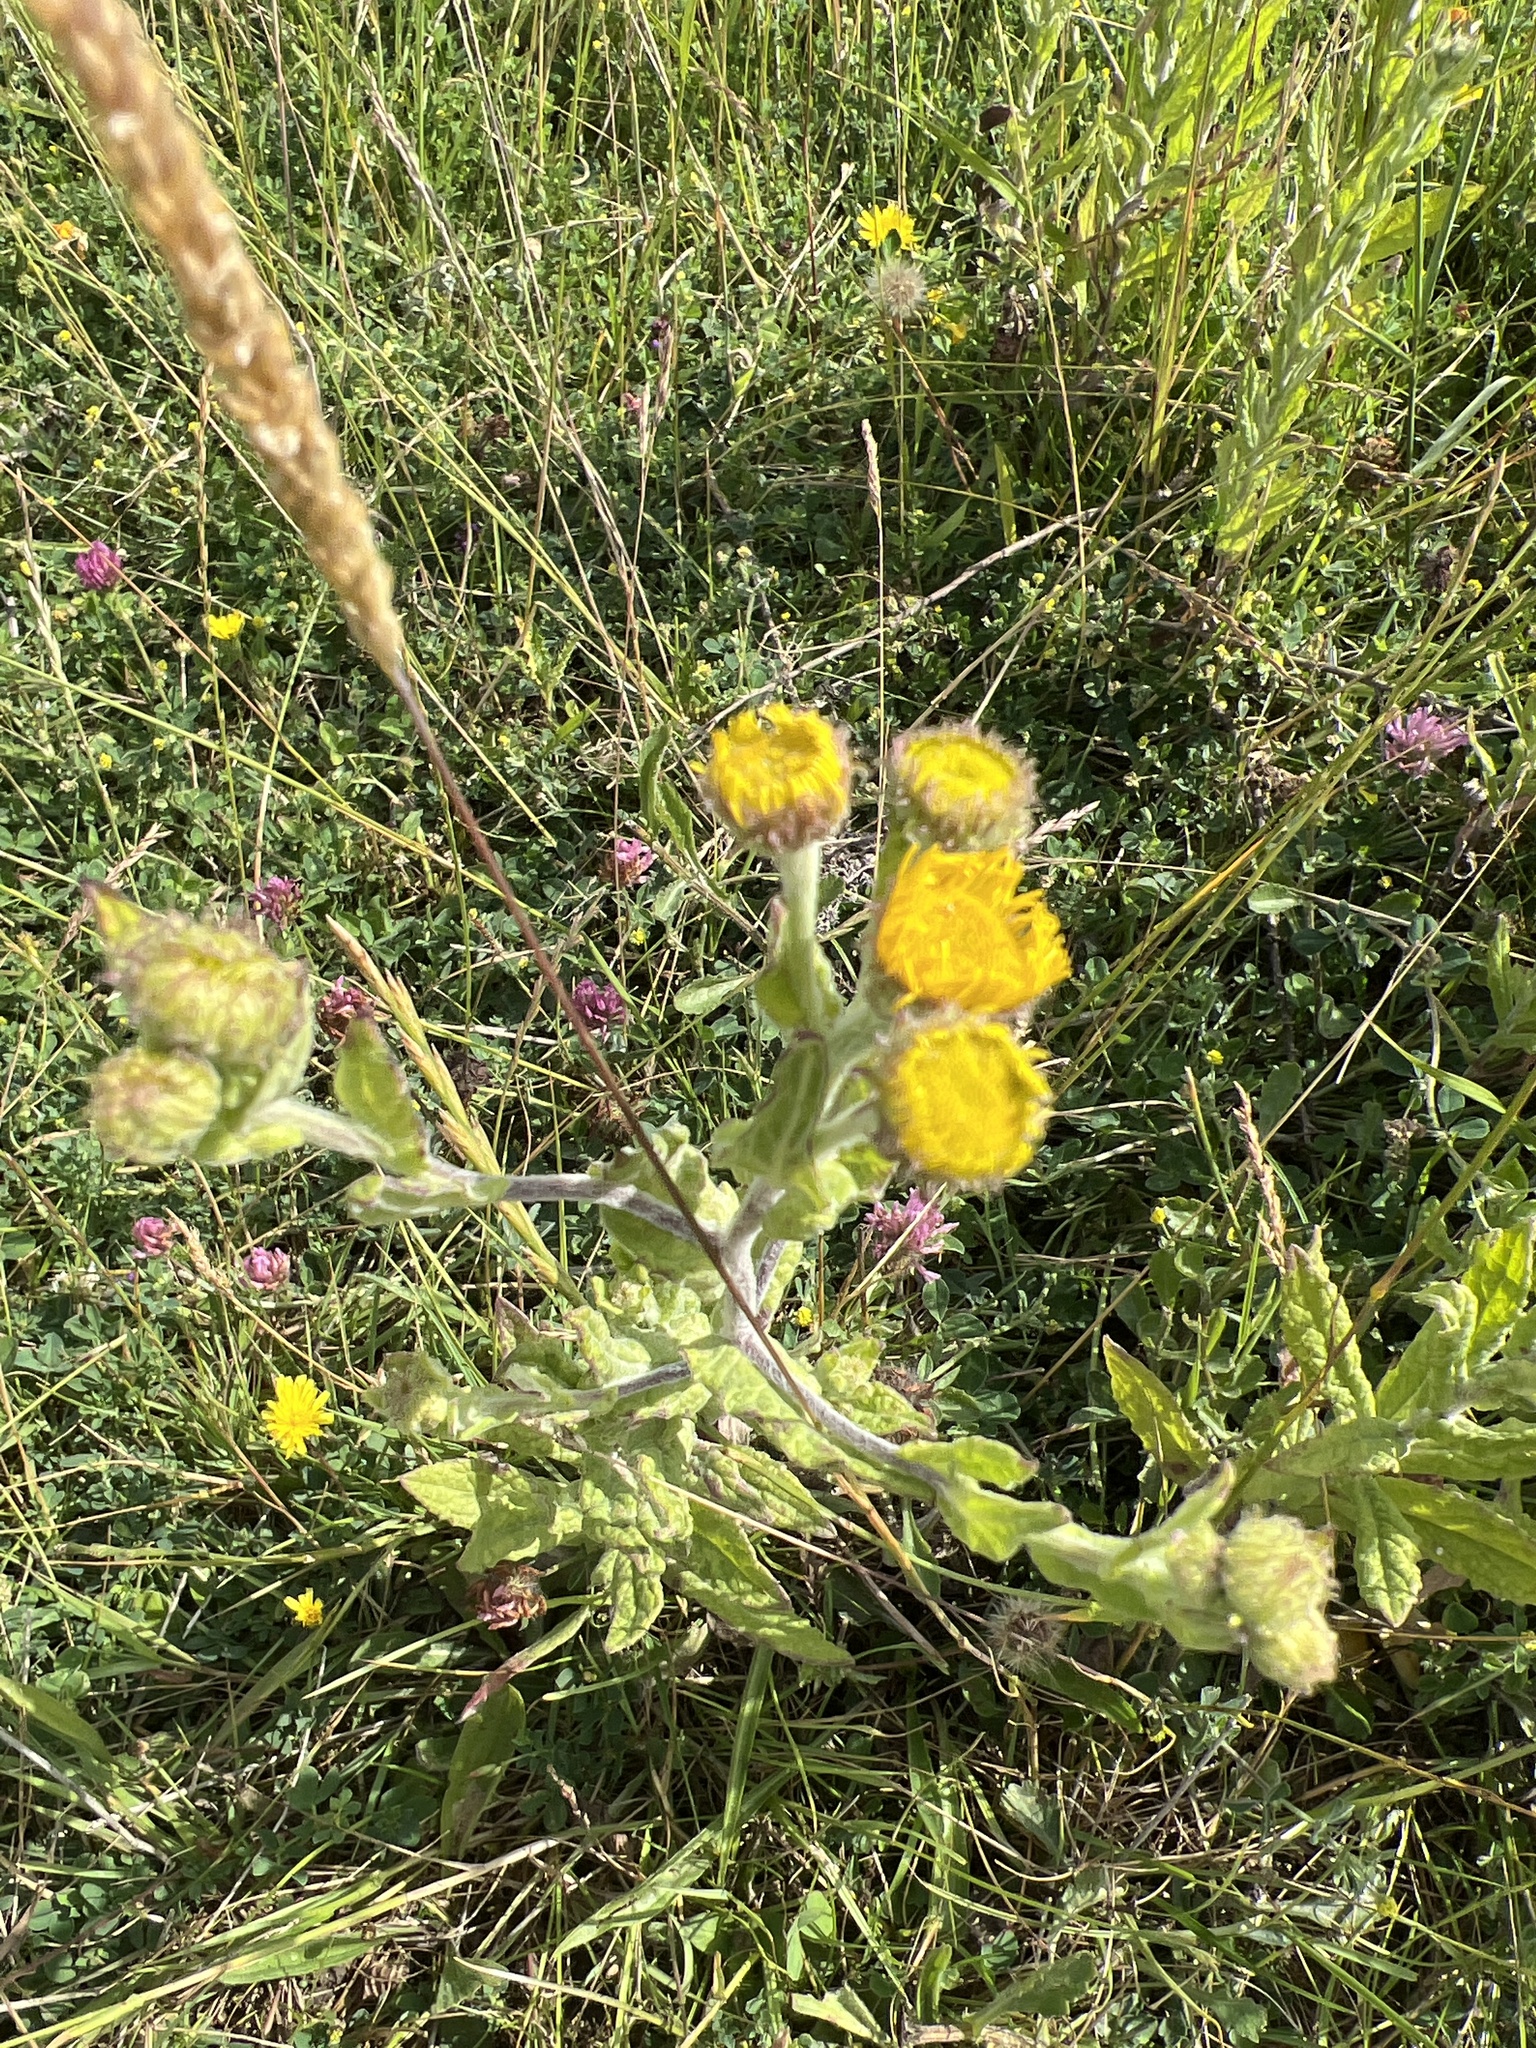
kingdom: Plantae
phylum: Tracheophyta
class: Magnoliopsida
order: Asterales
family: Asteraceae
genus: Pulicaria
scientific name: Pulicaria dysenterica
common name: Common fleabane
